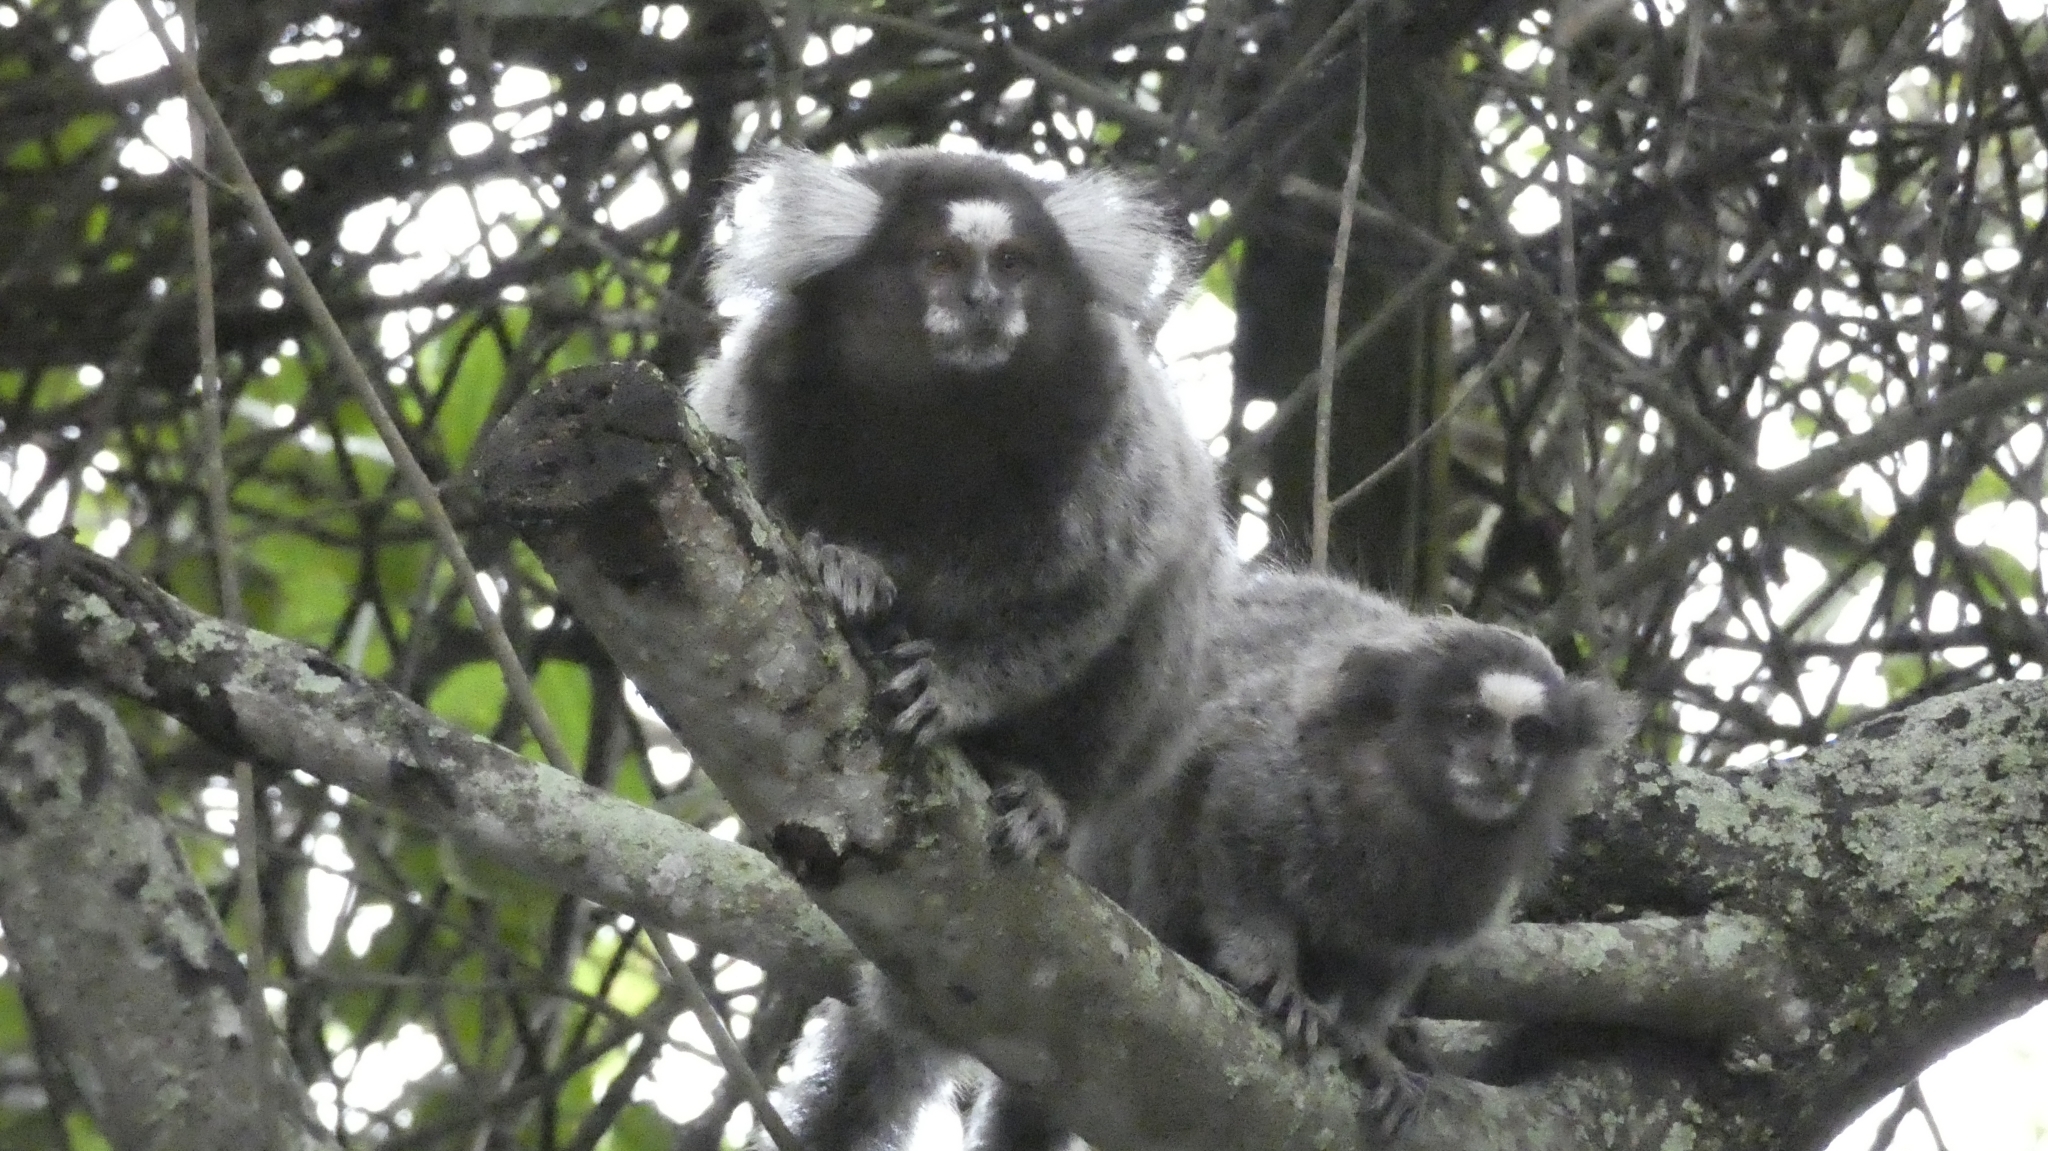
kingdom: Animalia
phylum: Chordata
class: Mammalia
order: Primates
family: Callitrichidae
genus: Callithrix
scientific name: Callithrix jacchus
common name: Common marmoset
